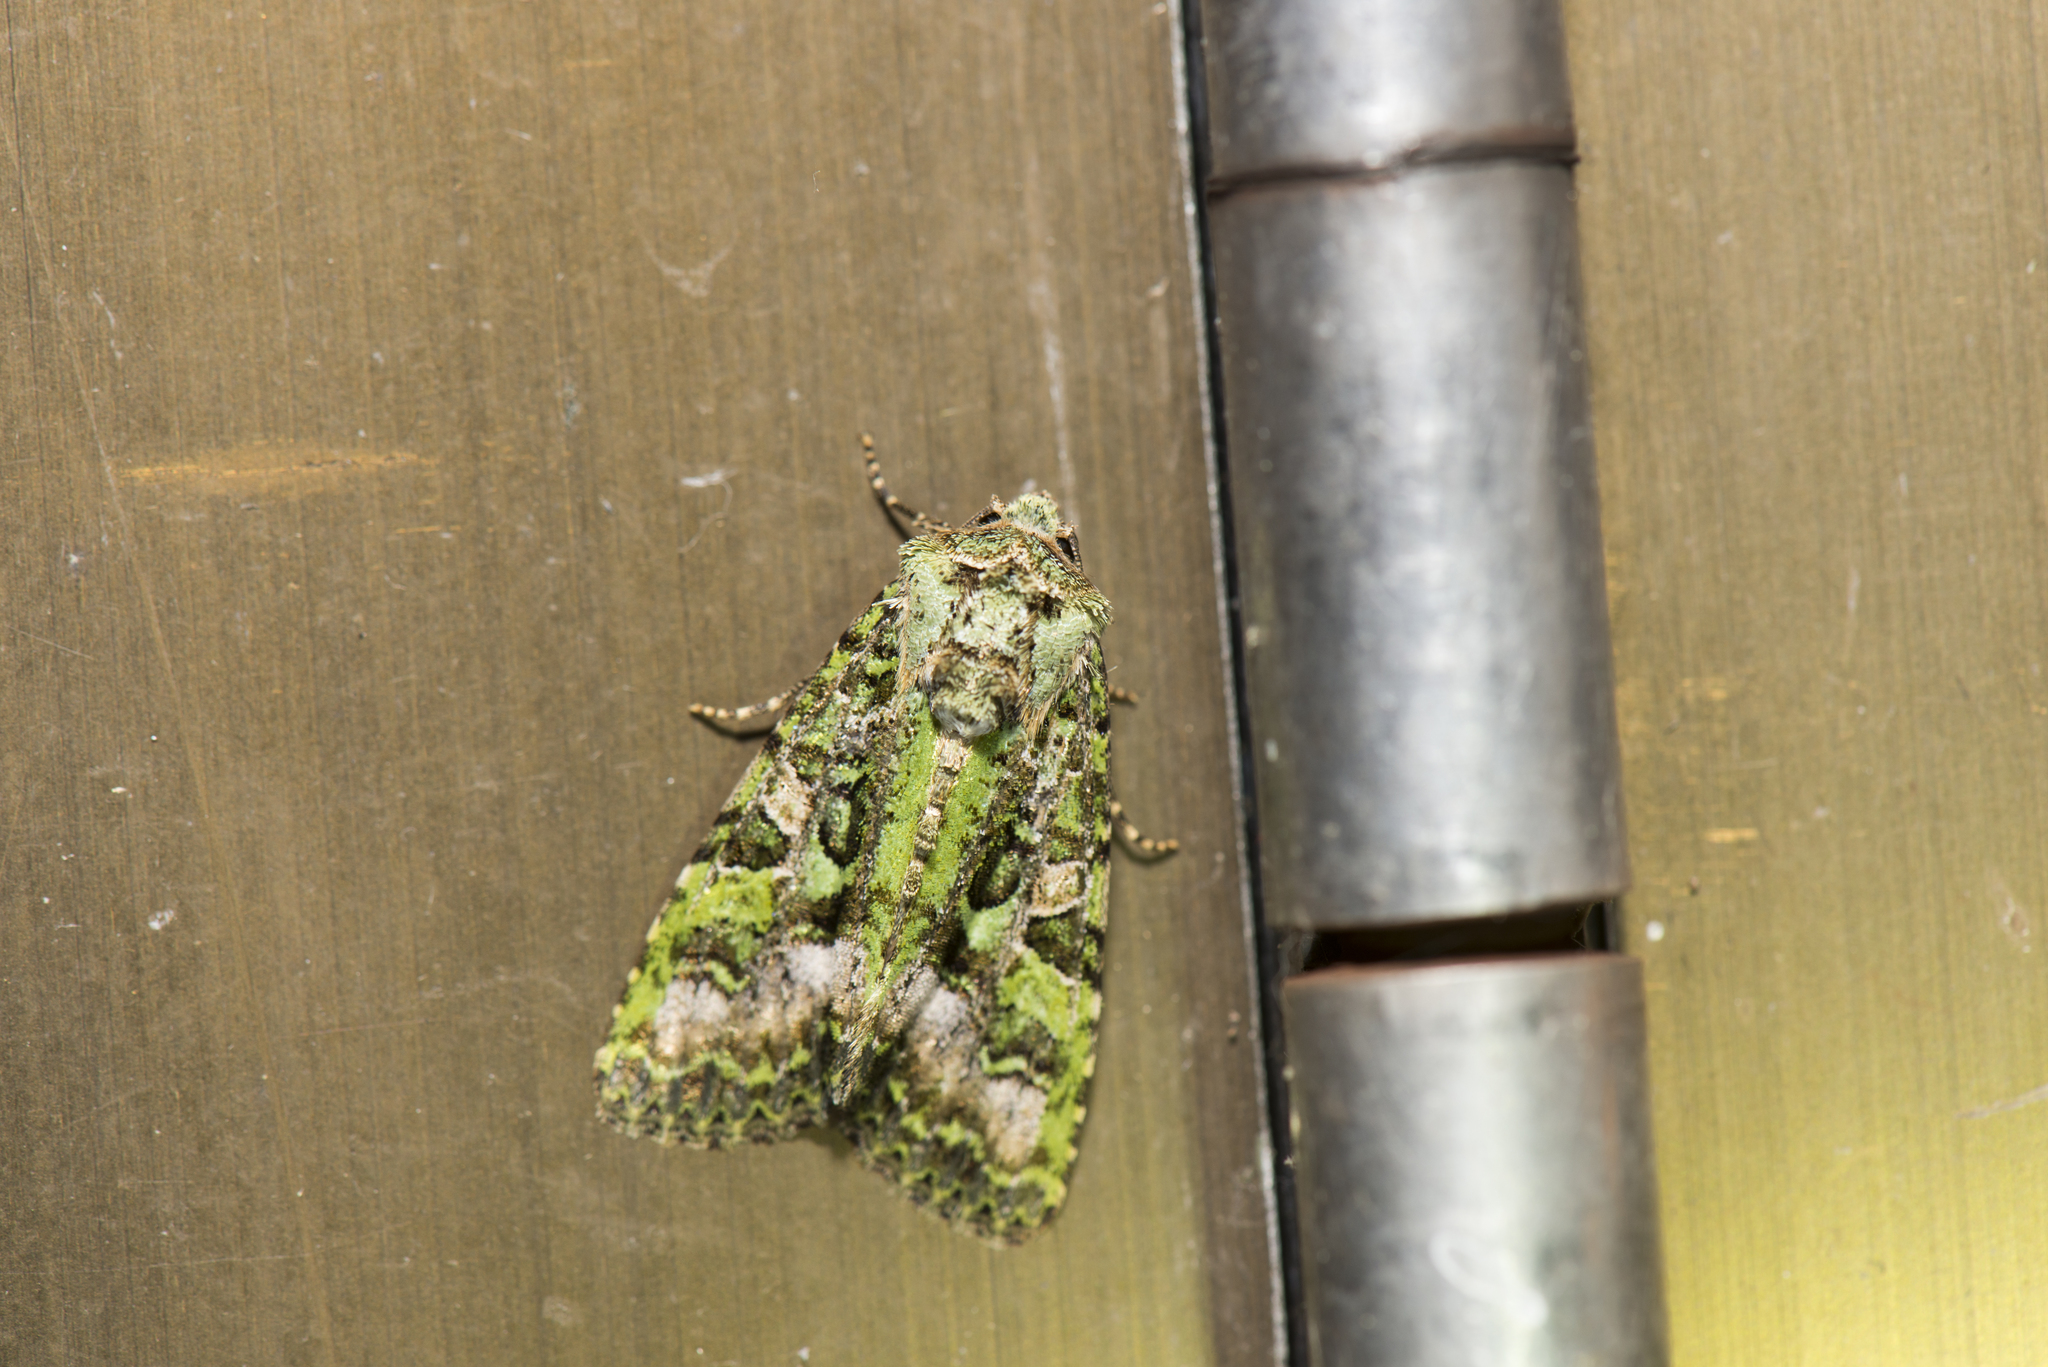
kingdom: Animalia
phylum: Arthropoda
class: Insecta
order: Lepidoptera
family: Noctuidae
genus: Euplexidia
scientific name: Euplexidia pallidivirens
